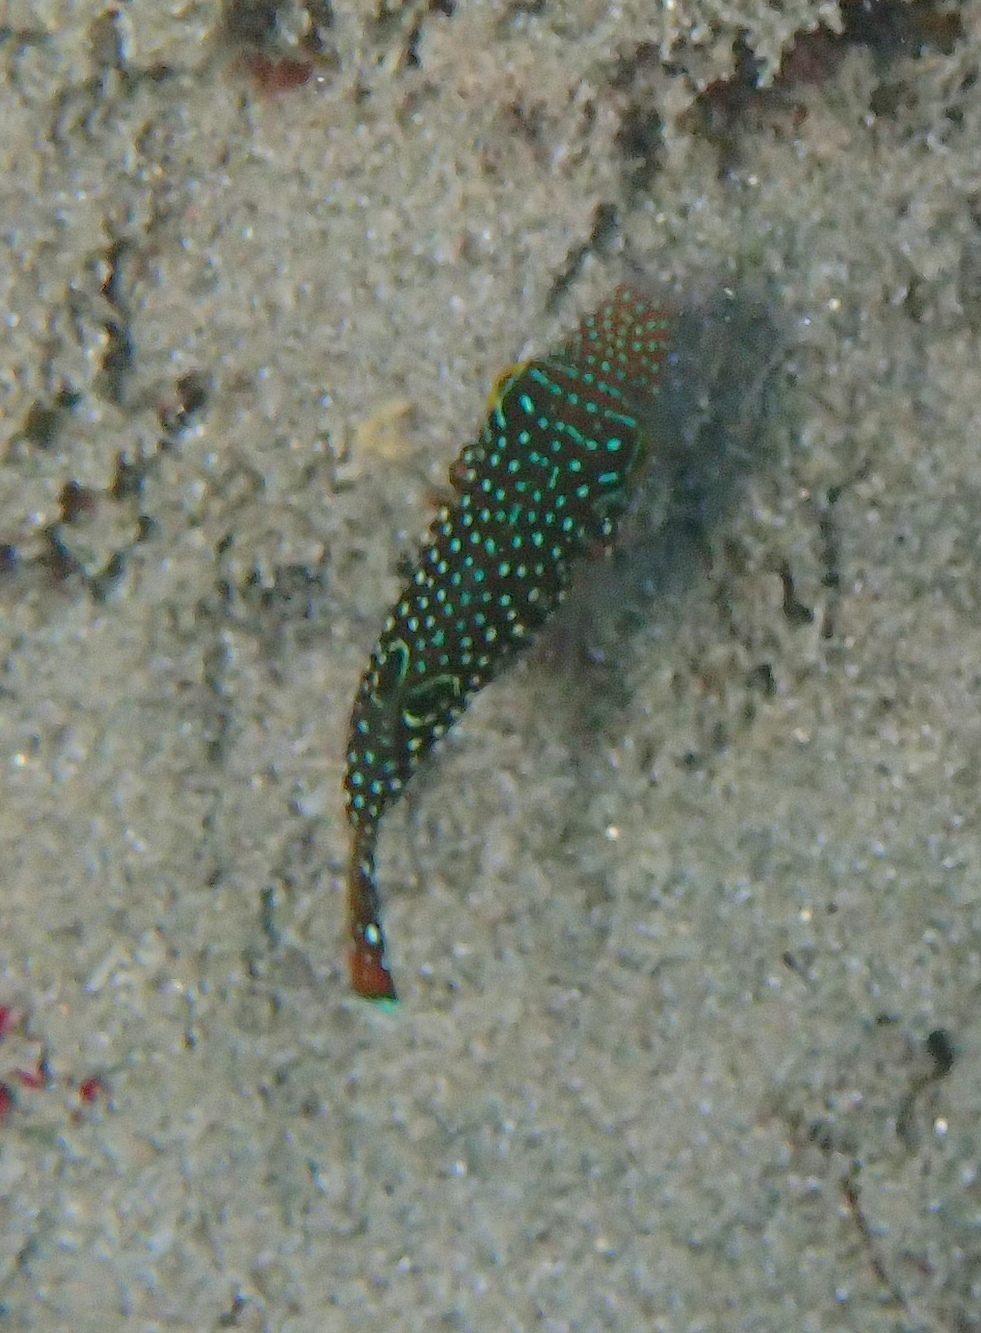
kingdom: Animalia
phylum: Chordata
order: Tetraodontiformes
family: Tetraodontidae
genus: Canthigaster
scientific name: Canthigaster margaritata
